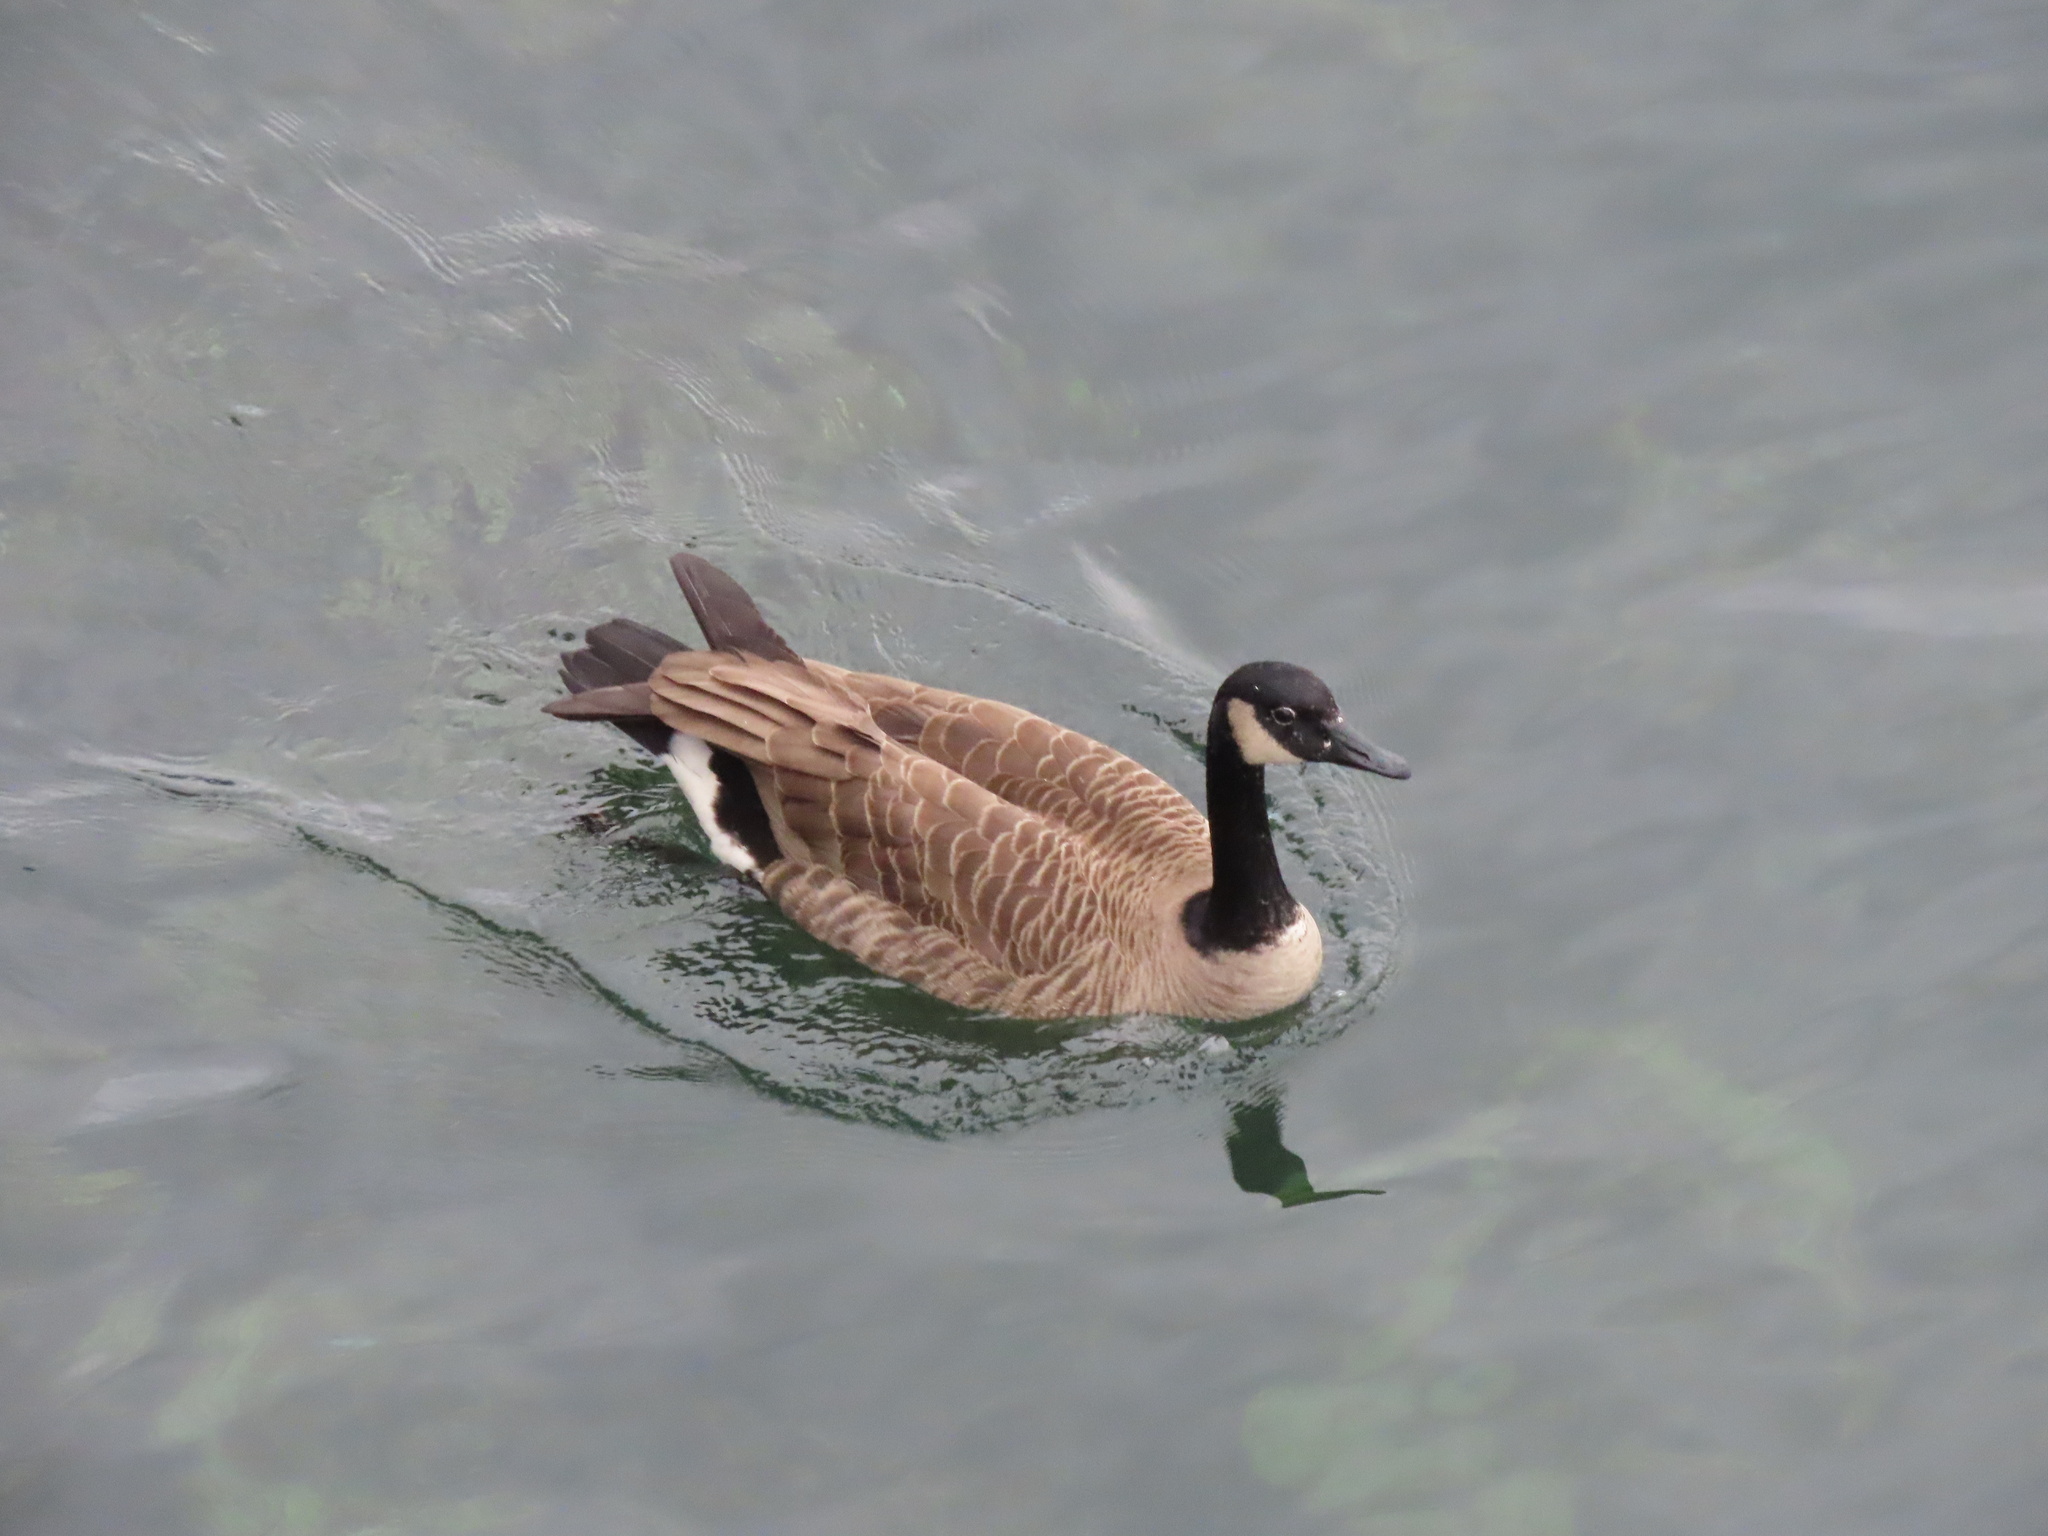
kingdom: Animalia
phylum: Chordata
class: Aves
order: Anseriformes
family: Anatidae
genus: Branta
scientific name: Branta canadensis
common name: Canada goose
